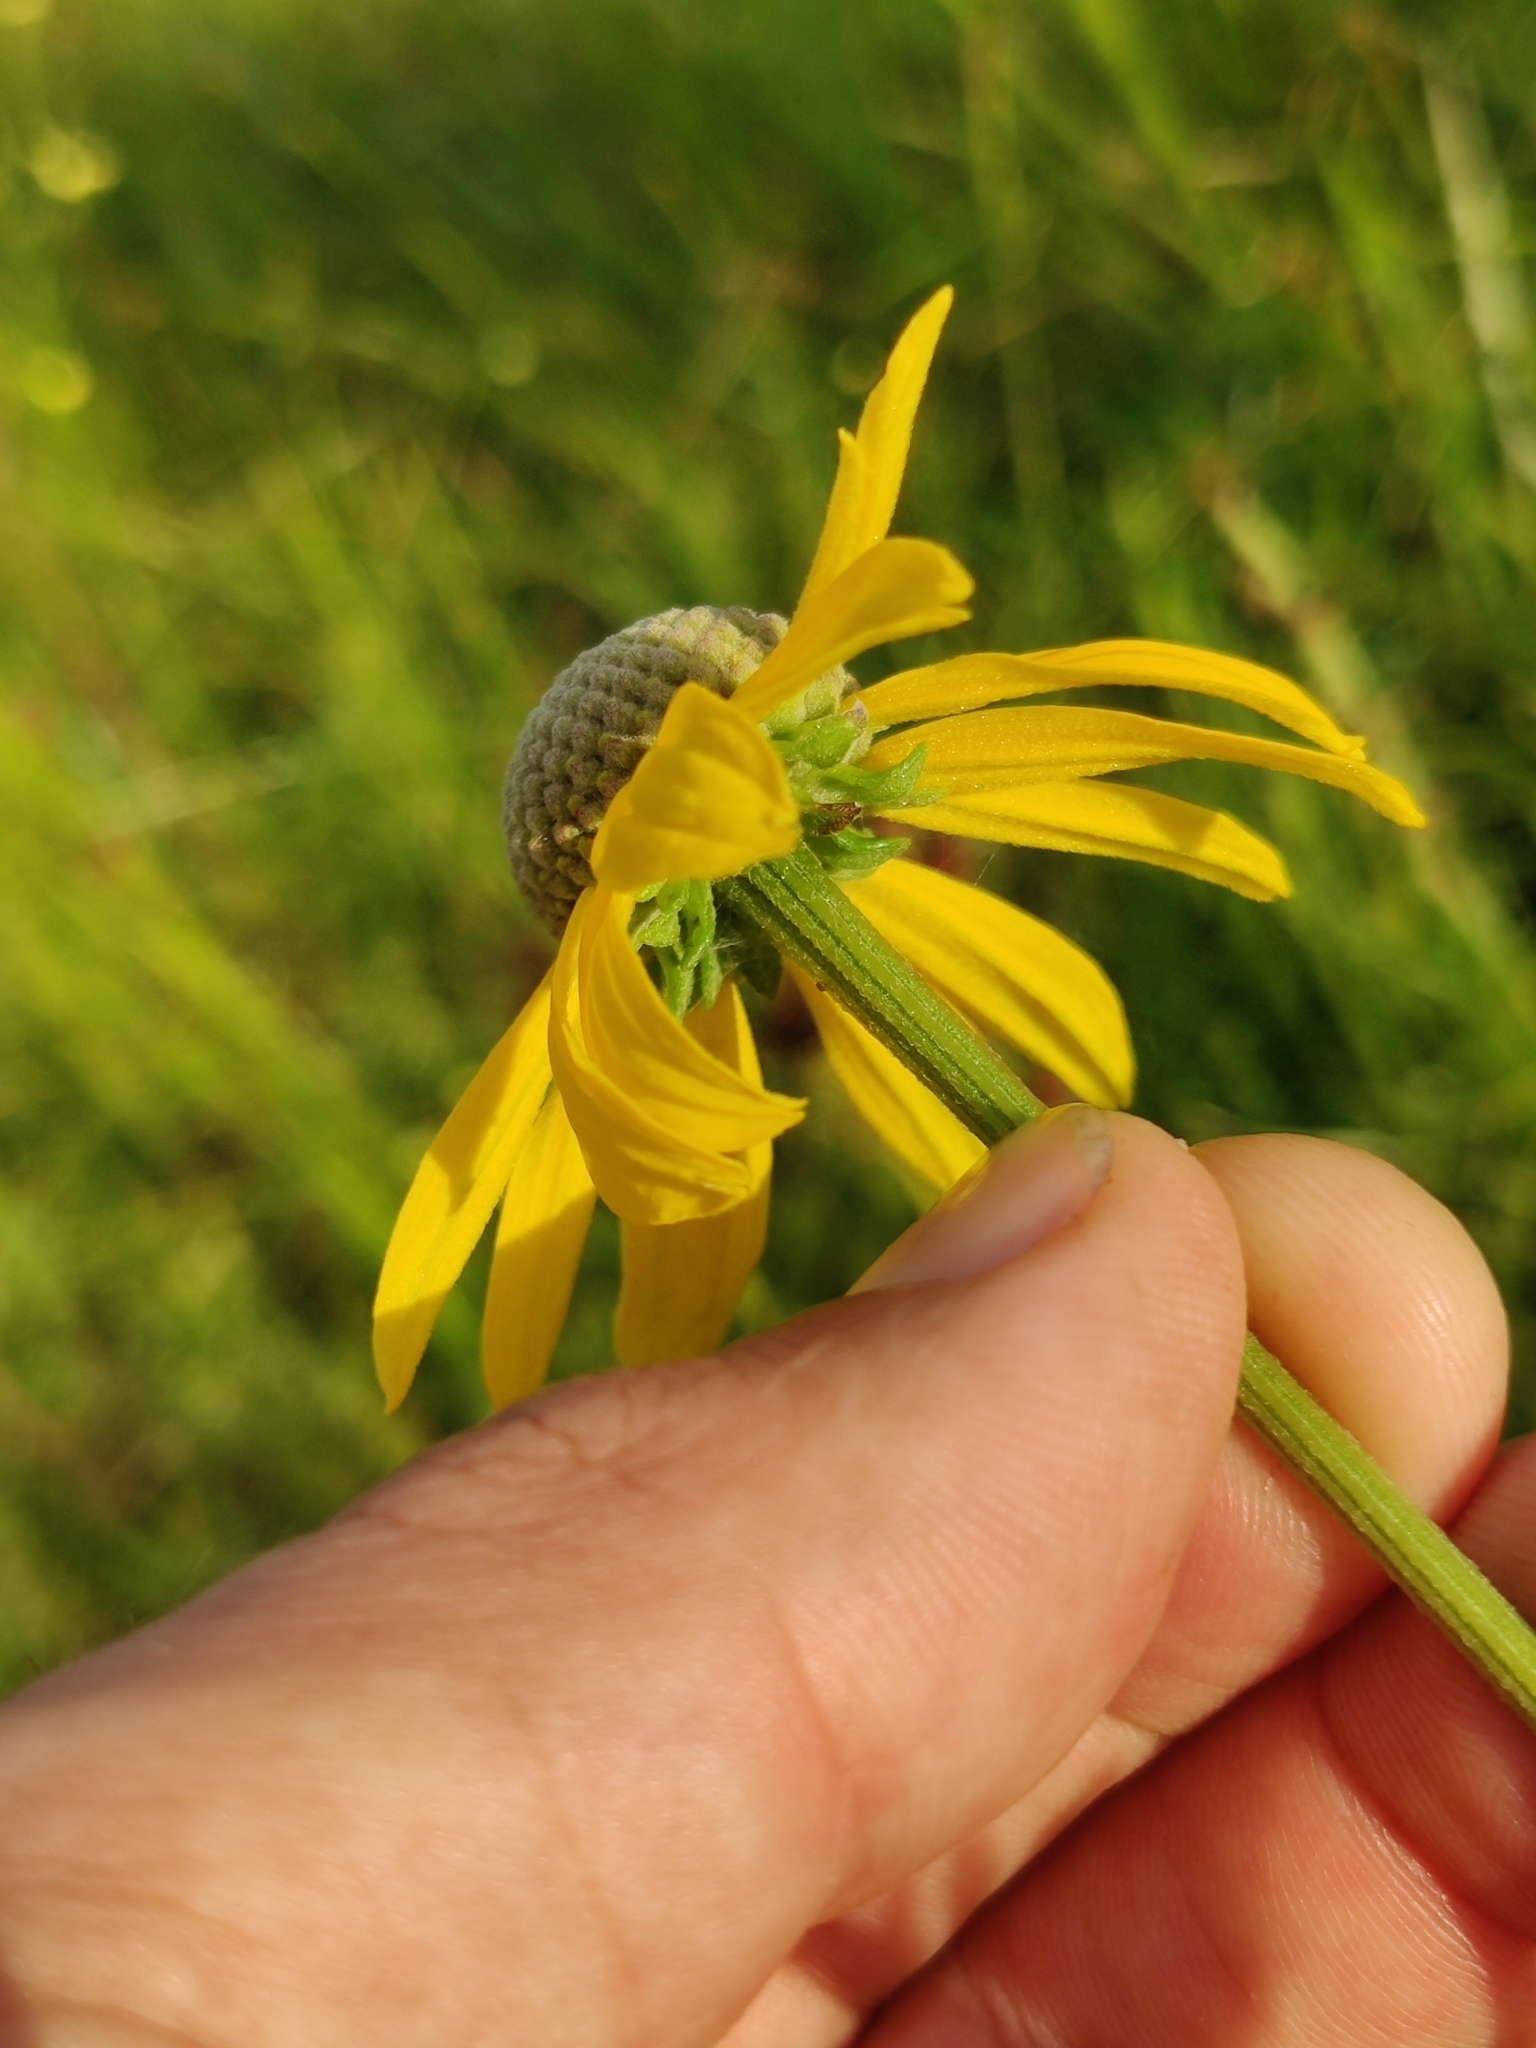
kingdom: Plantae
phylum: Tracheophyta
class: Magnoliopsida
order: Asterales
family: Asteraceae
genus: Rudbeckia
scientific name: Rudbeckia grandiflora
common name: Large-flowered coneflower
